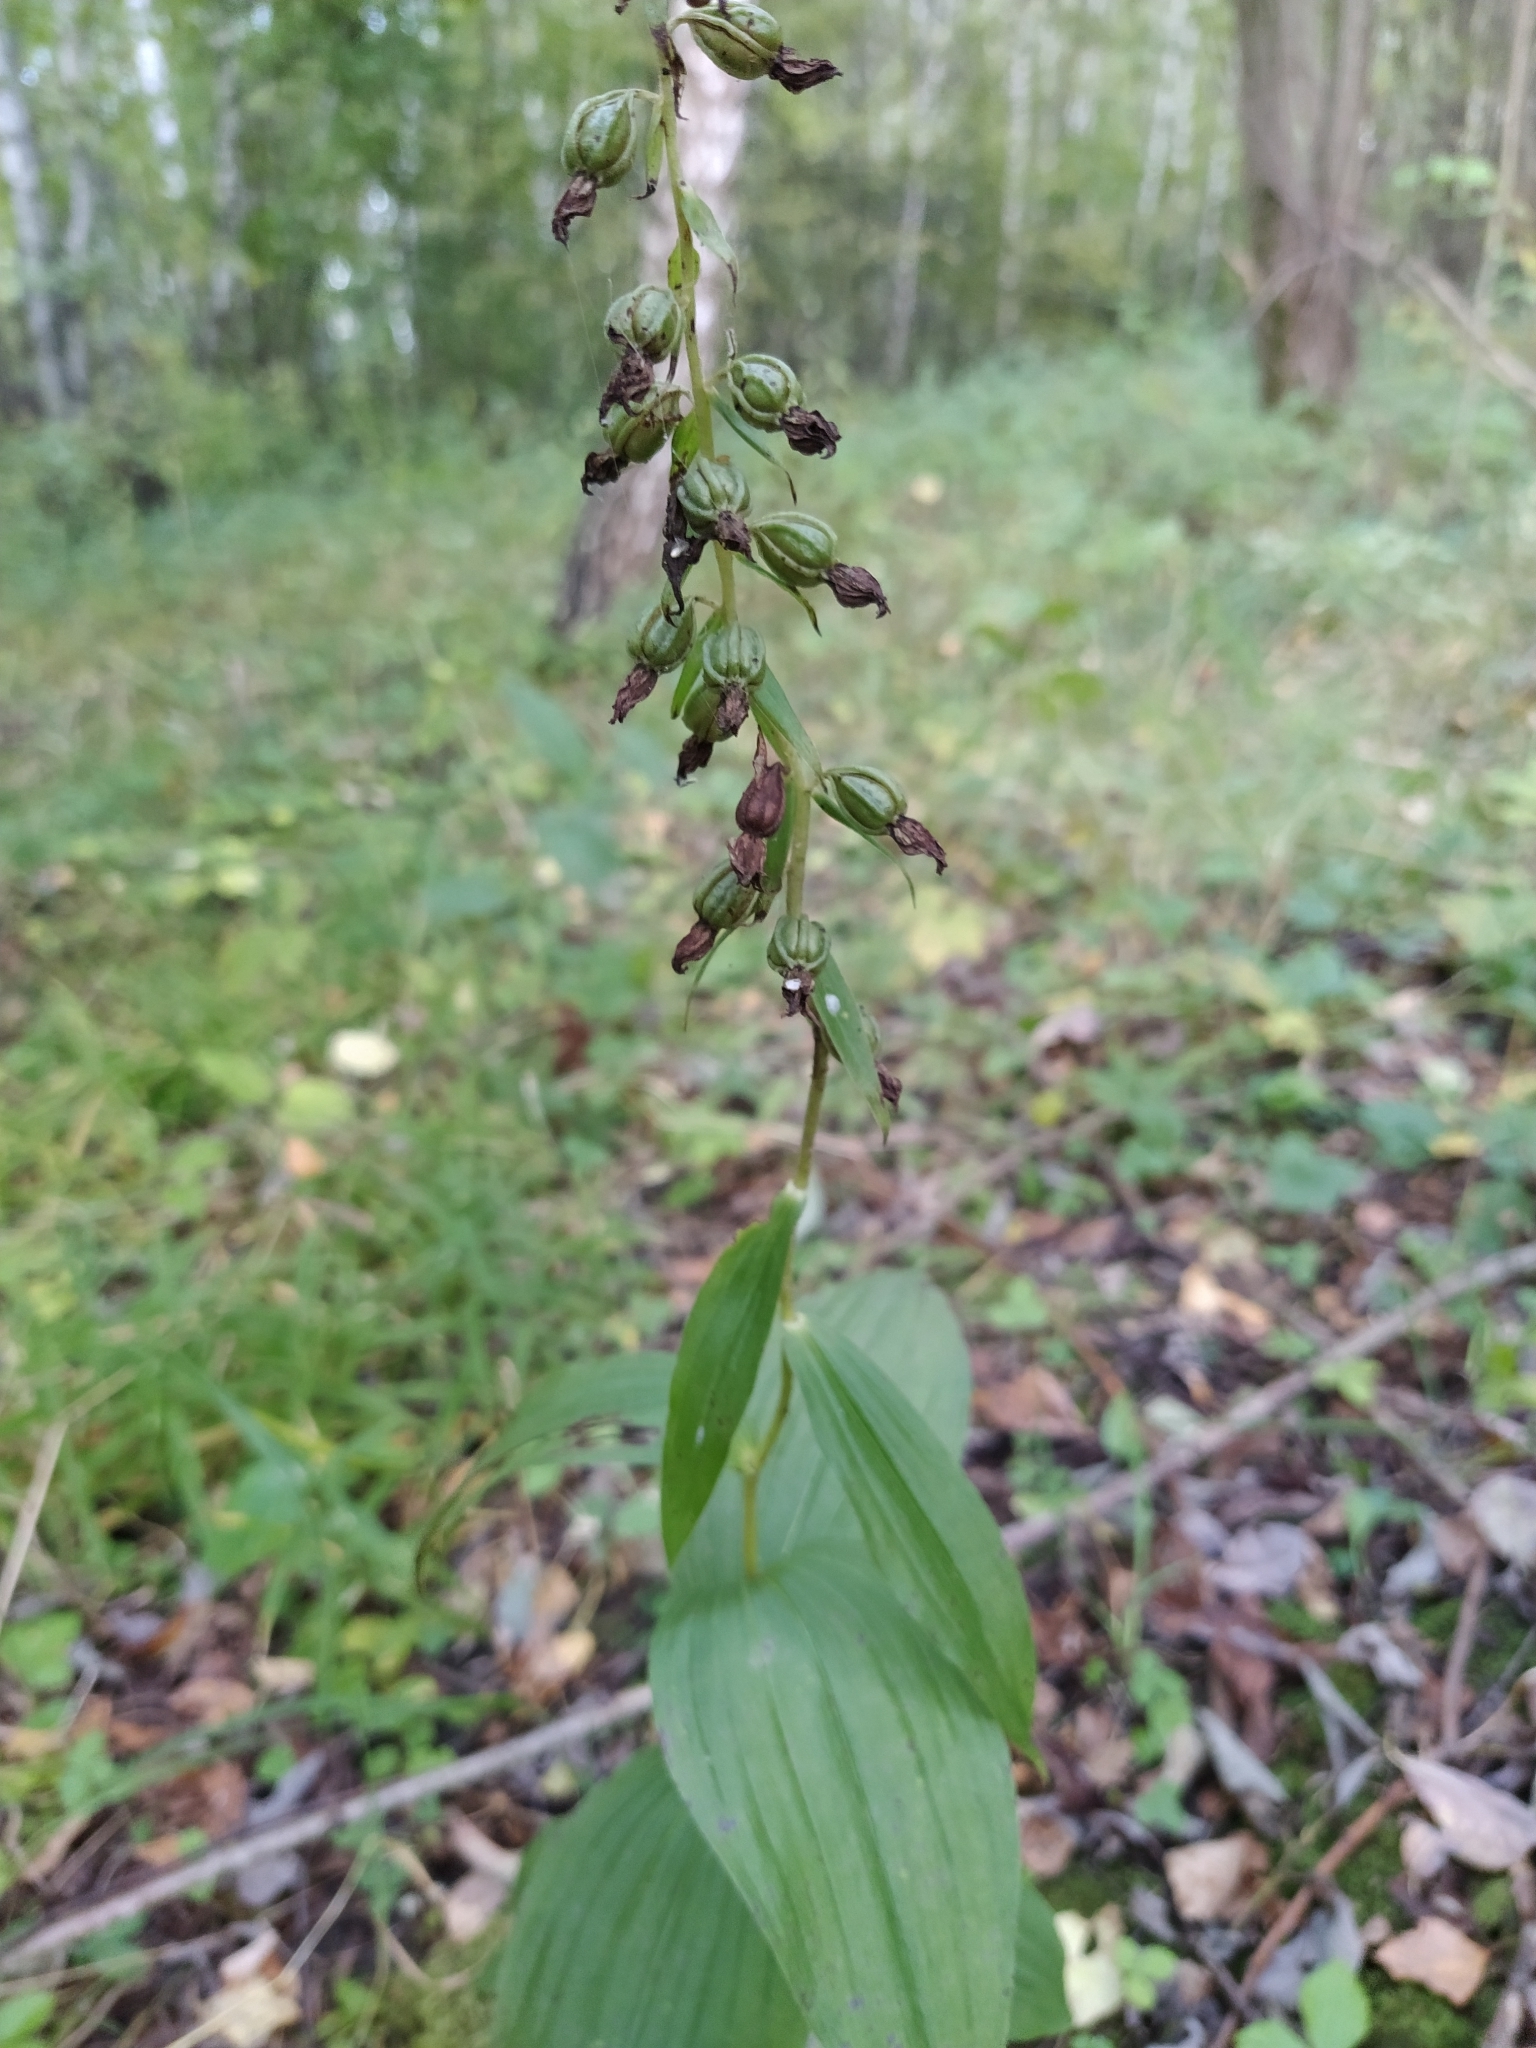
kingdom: Plantae
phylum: Tracheophyta
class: Liliopsida
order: Asparagales
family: Orchidaceae
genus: Epipactis
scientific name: Epipactis helleborine
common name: Broad-leaved helleborine
